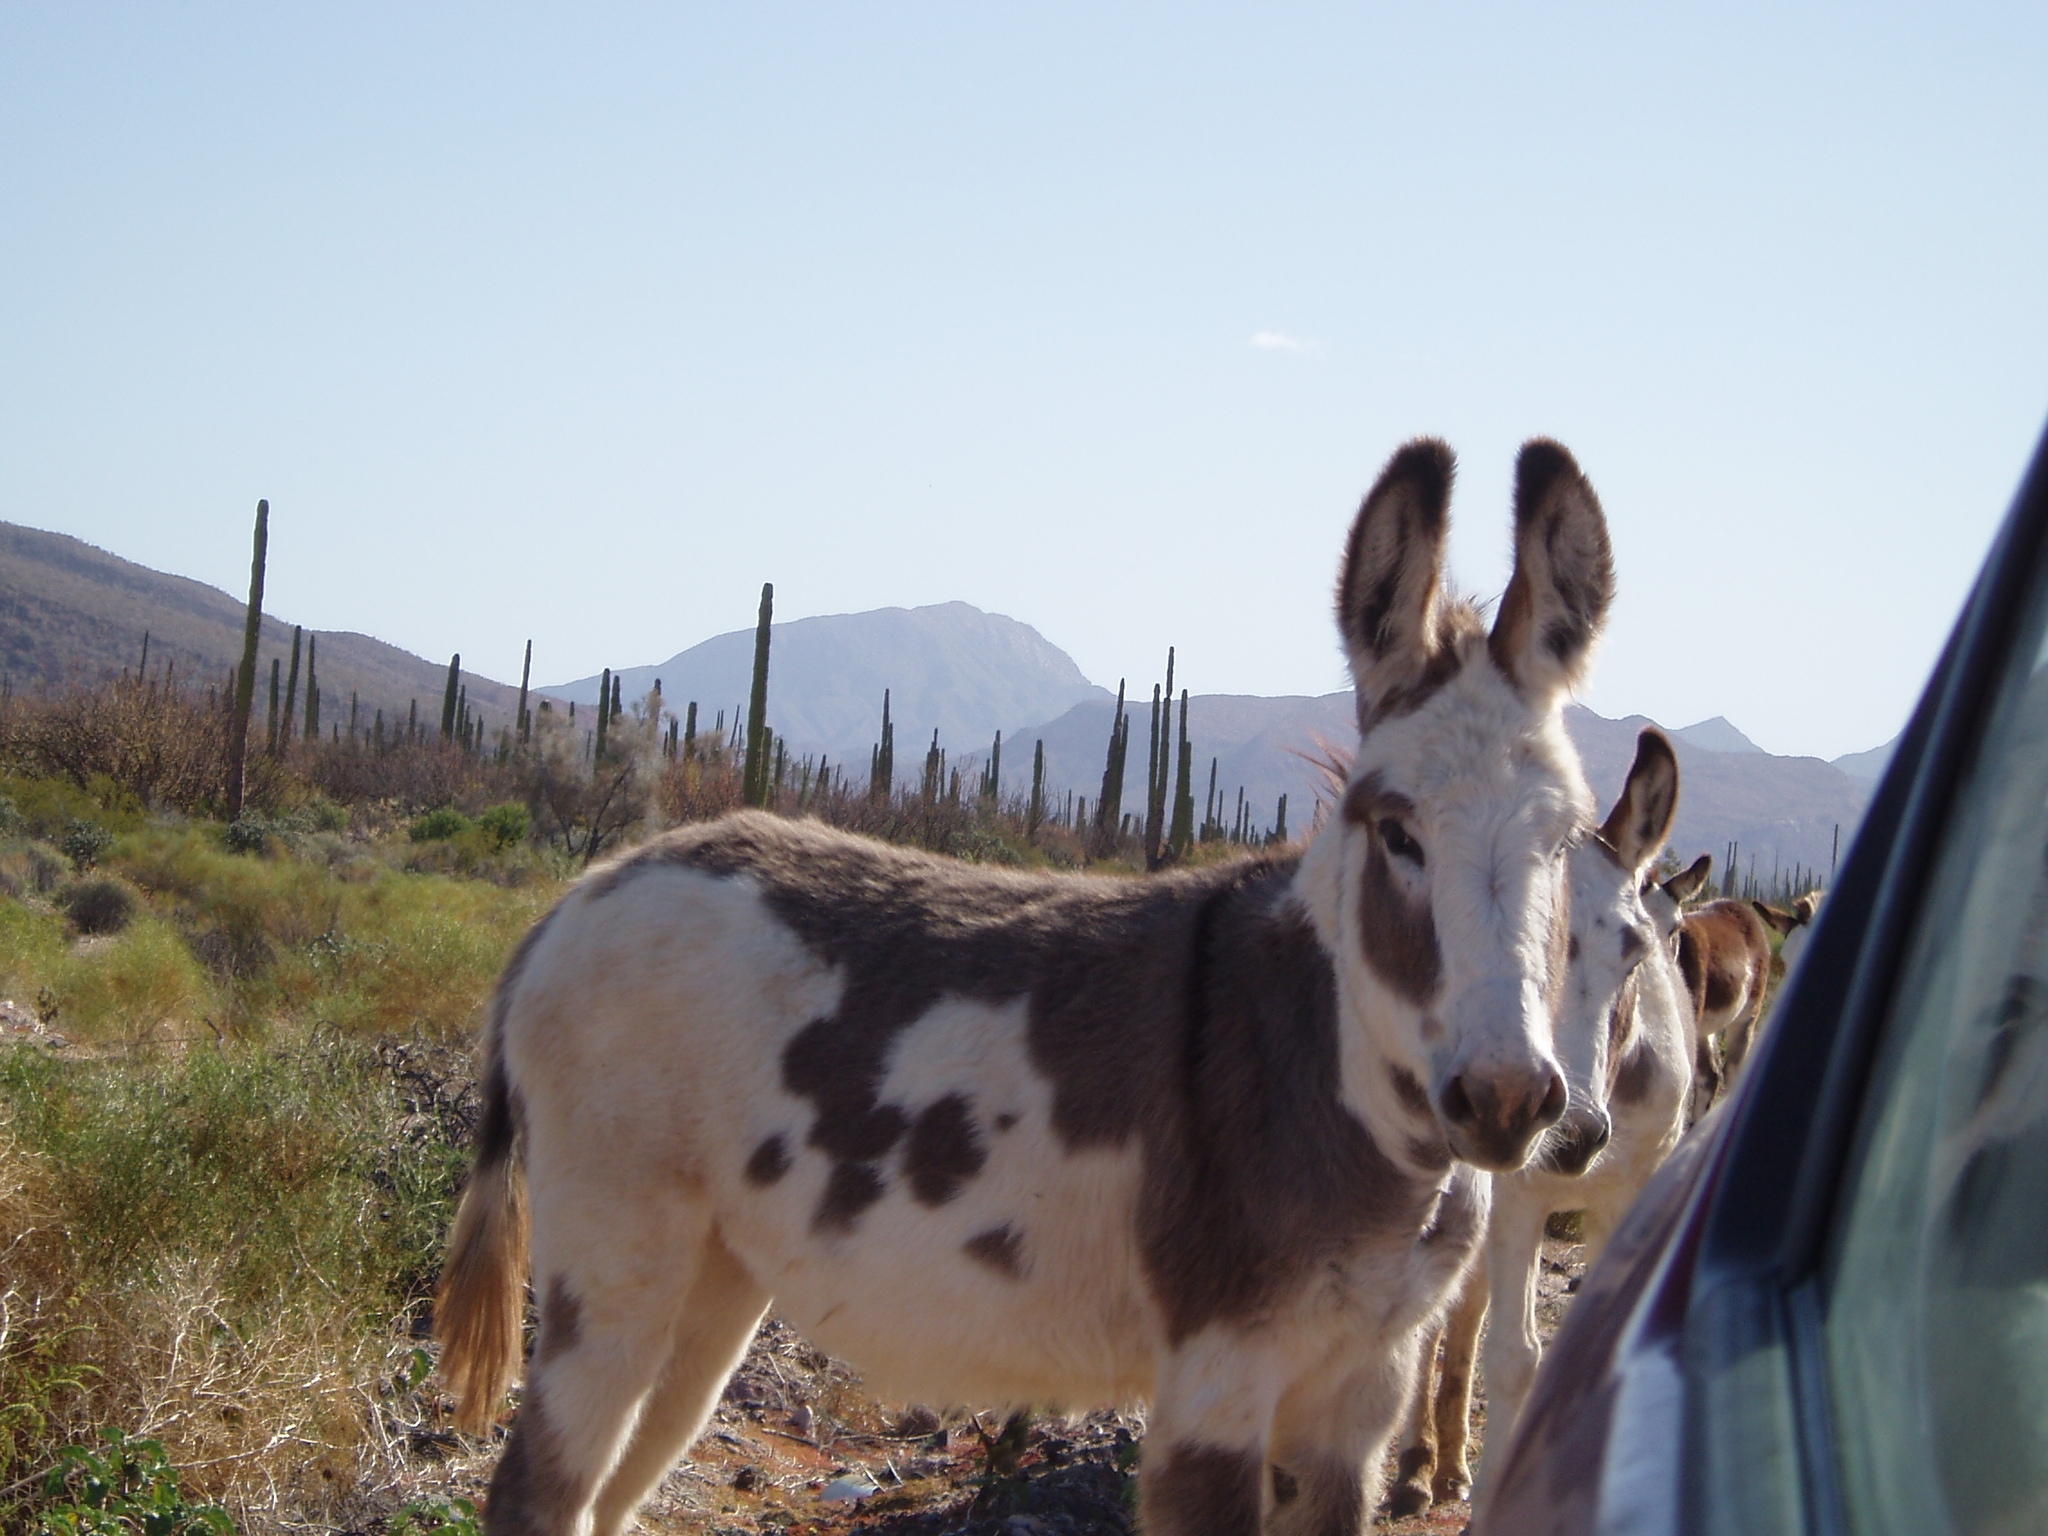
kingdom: Animalia
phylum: Chordata
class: Mammalia
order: Perissodactyla
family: Equidae
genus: Equus
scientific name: Equus asinus
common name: Ass
